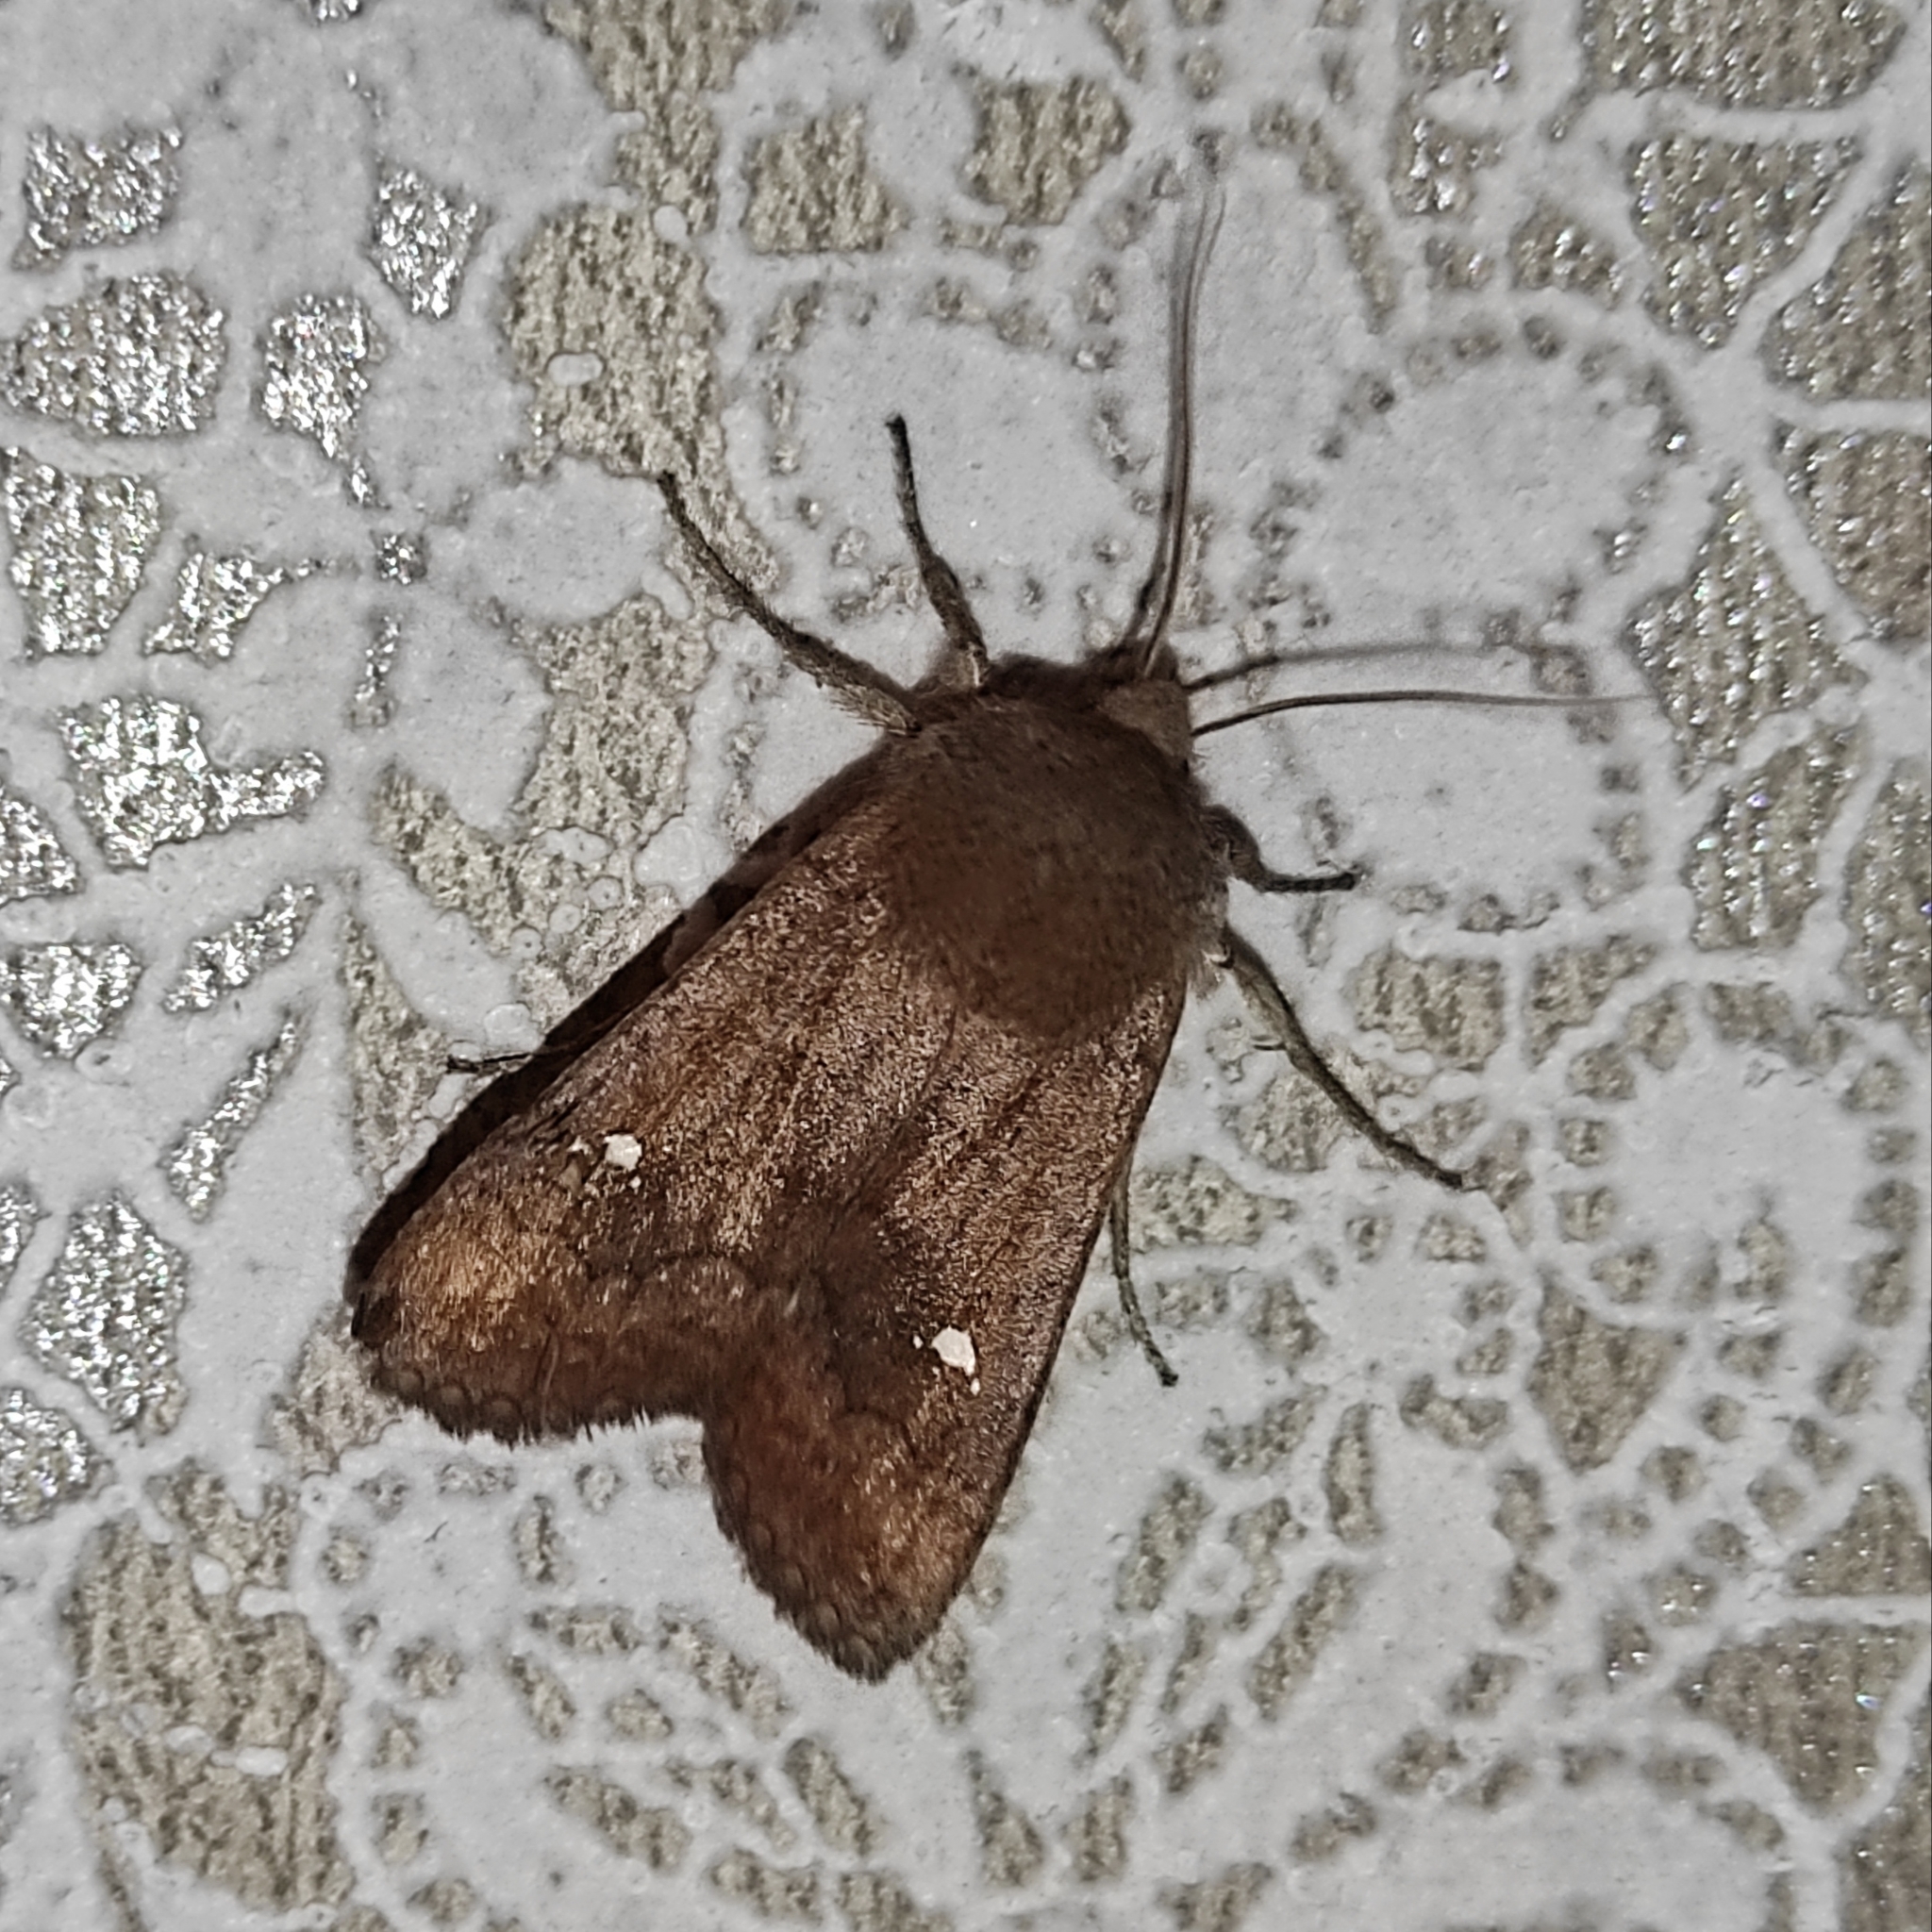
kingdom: Animalia
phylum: Arthropoda
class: Insecta
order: Lepidoptera
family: Noctuidae
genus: Eupsilia
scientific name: Eupsilia transversa
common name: Satellite
